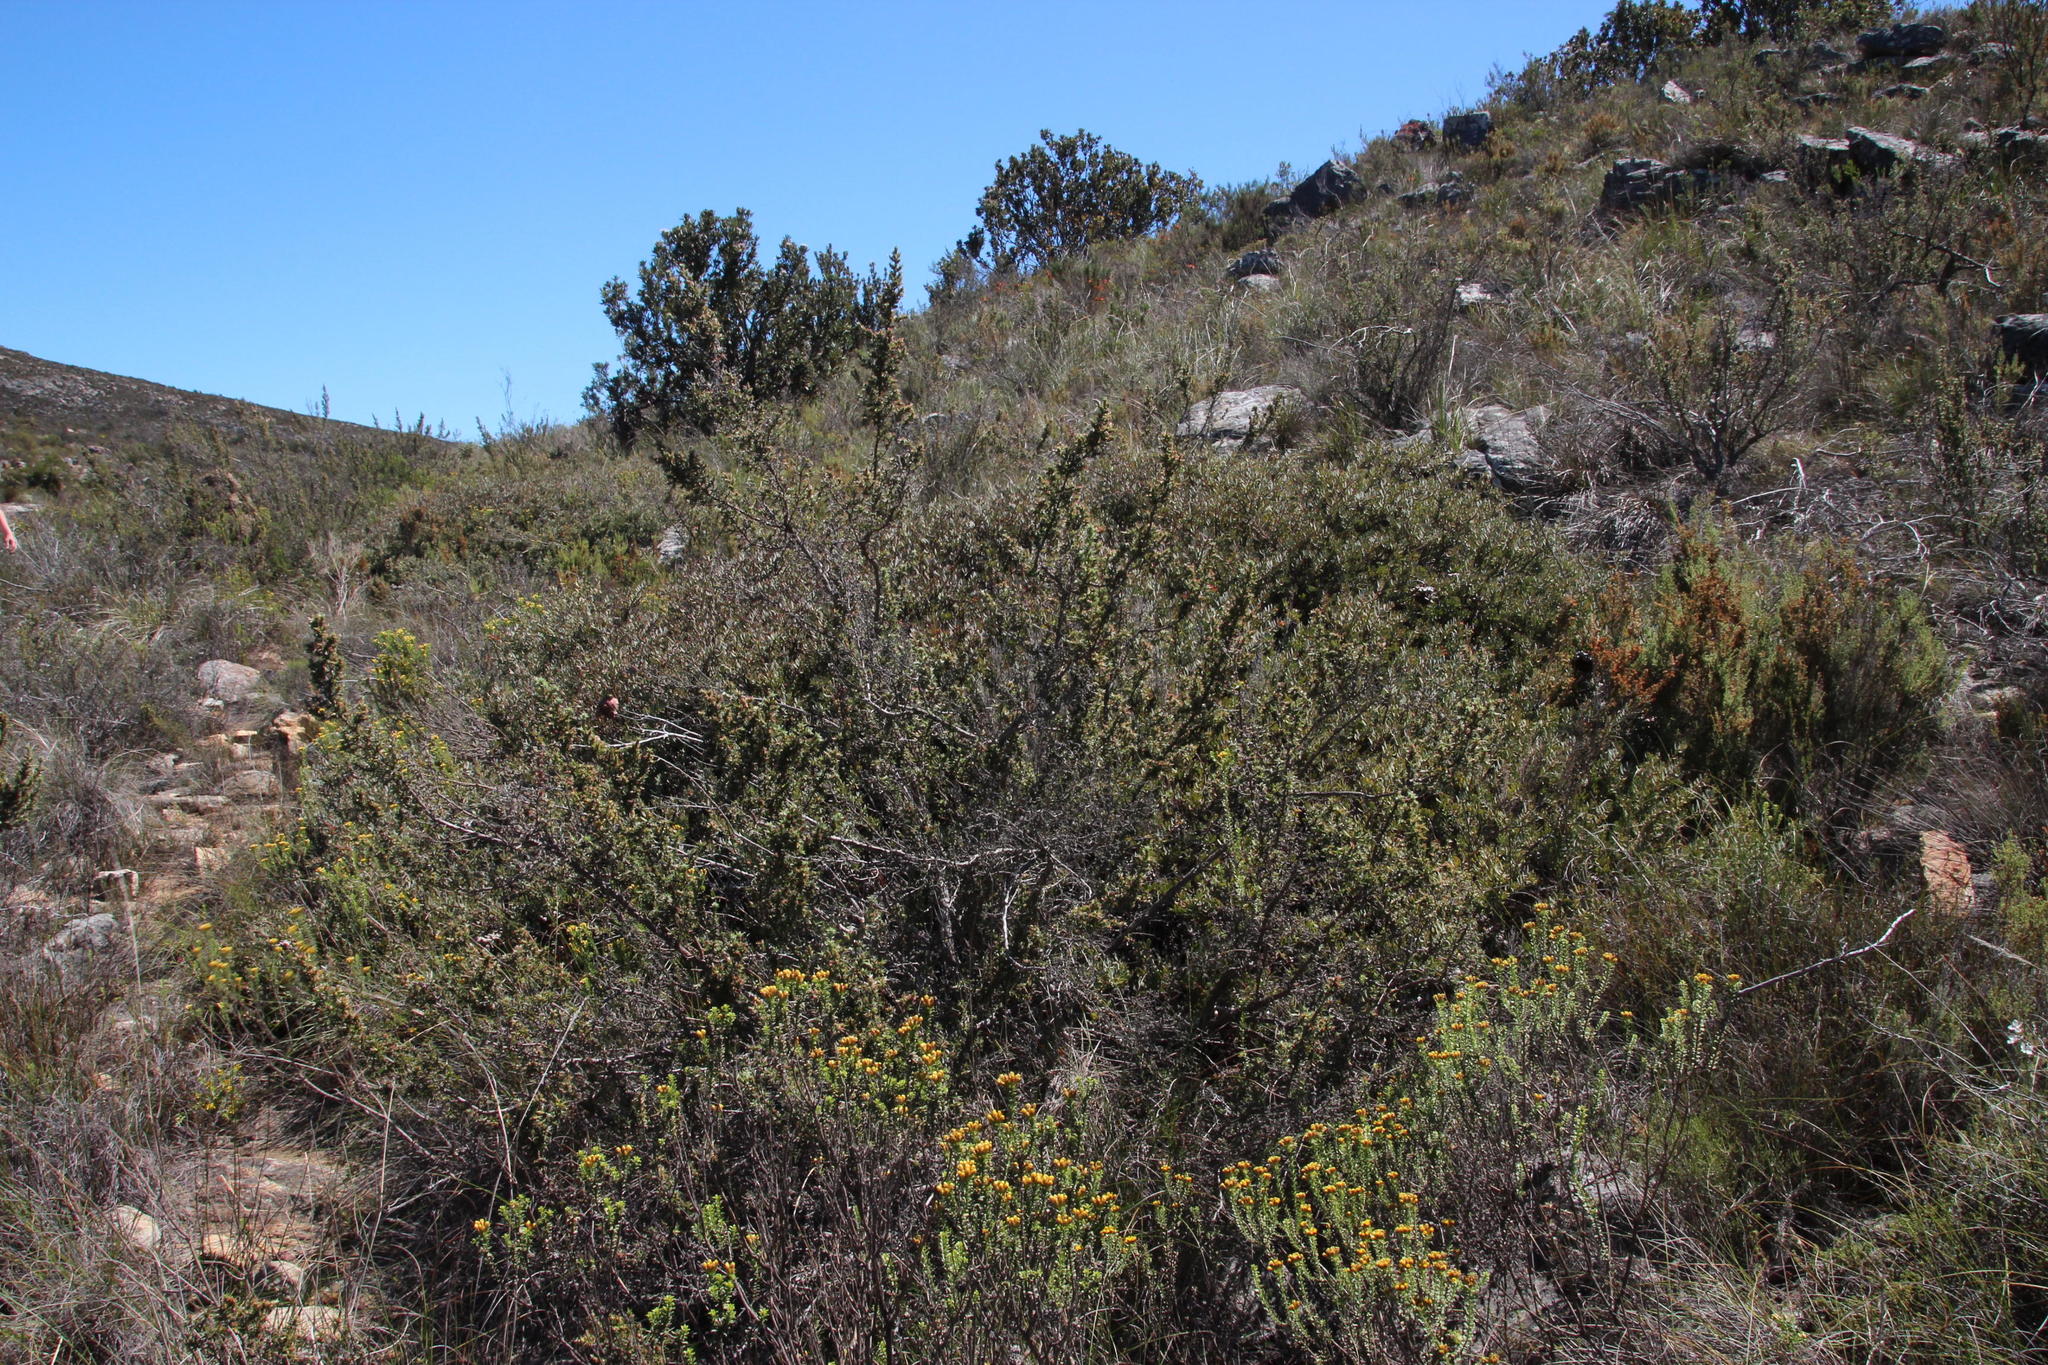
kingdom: Plantae
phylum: Tracheophyta
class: Magnoliopsida
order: Proteales
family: Proteaceae
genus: Protea
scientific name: Protea sulphurea
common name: Sulphur sugarbush
